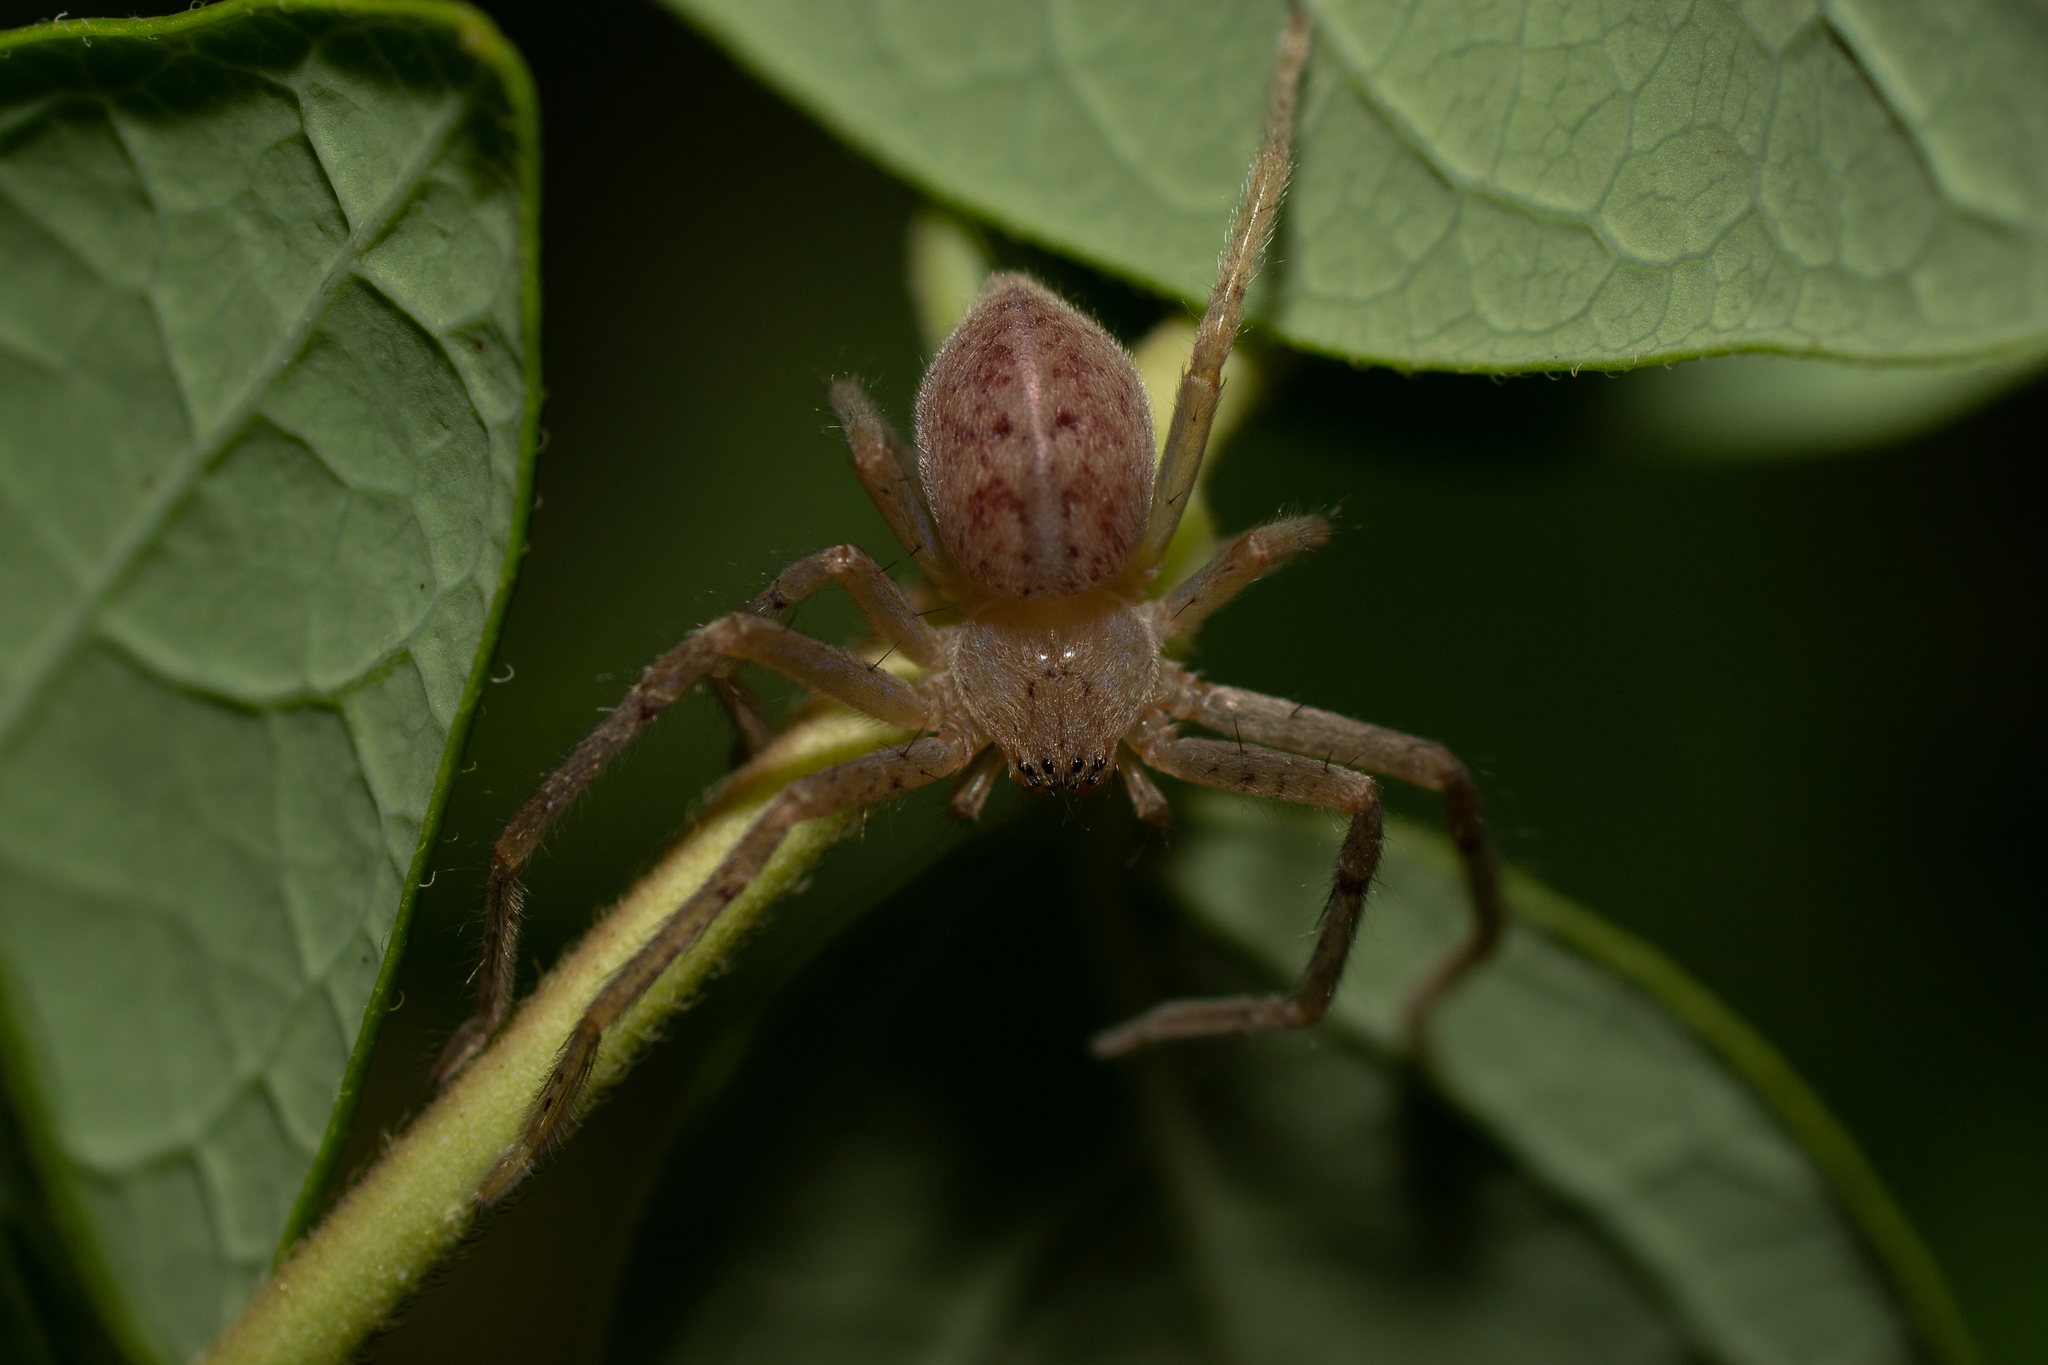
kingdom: Animalia
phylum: Arthropoda
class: Arachnida
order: Araneae
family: Sparassidae
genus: Olios
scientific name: Olios argelasius
